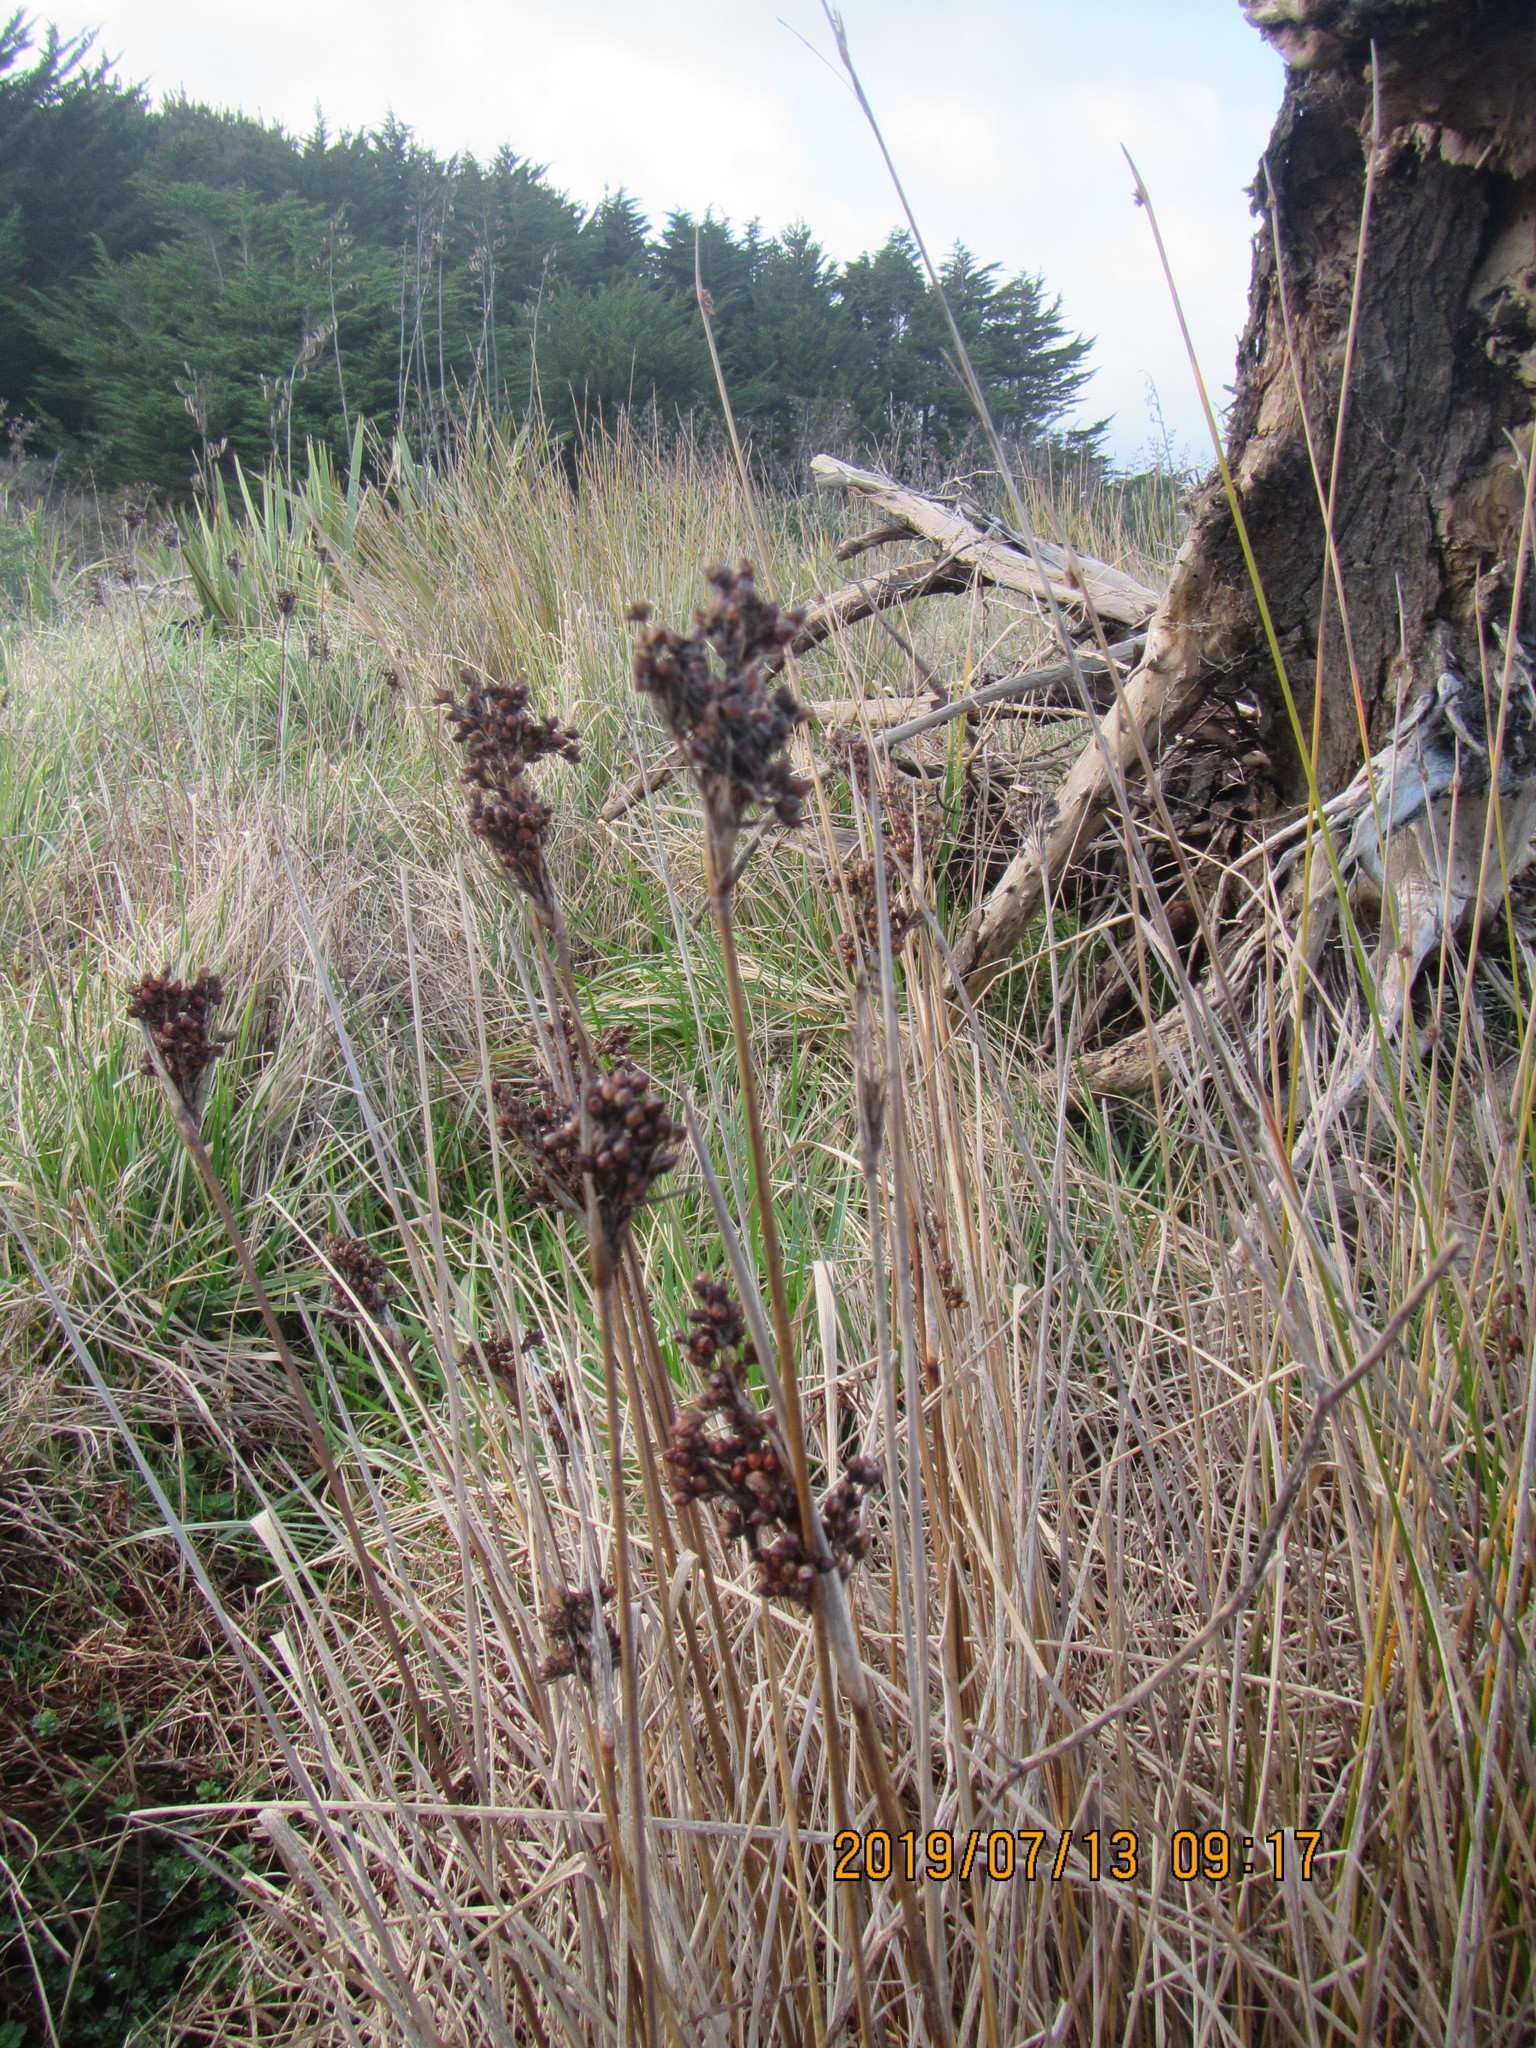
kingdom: Plantae
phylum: Tracheophyta
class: Liliopsida
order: Poales
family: Juncaceae
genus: Juncus
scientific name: Juncus acutus
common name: Sharp rush
